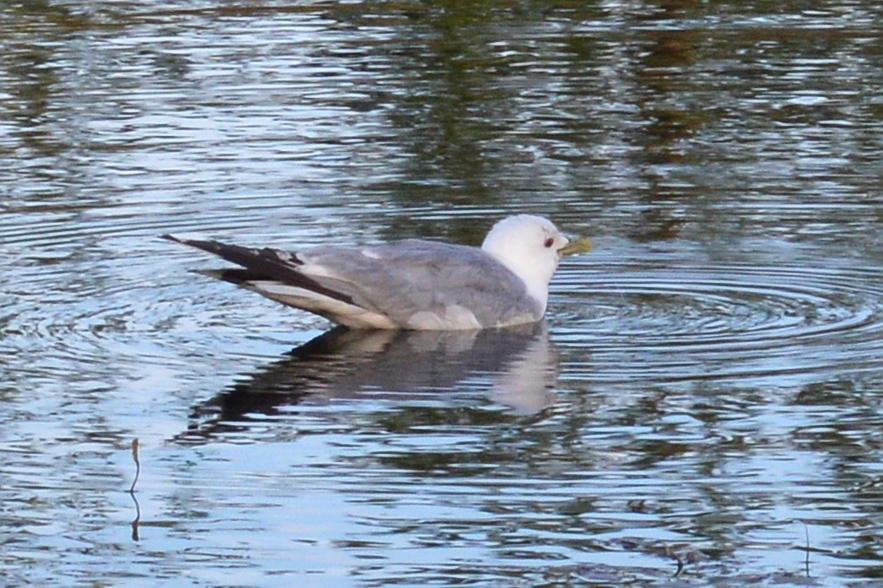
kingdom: Animalia
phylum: Chordata
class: Aves
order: Charadriiformes
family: Laridae
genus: Larus
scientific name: Larus canus
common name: Mew gull
